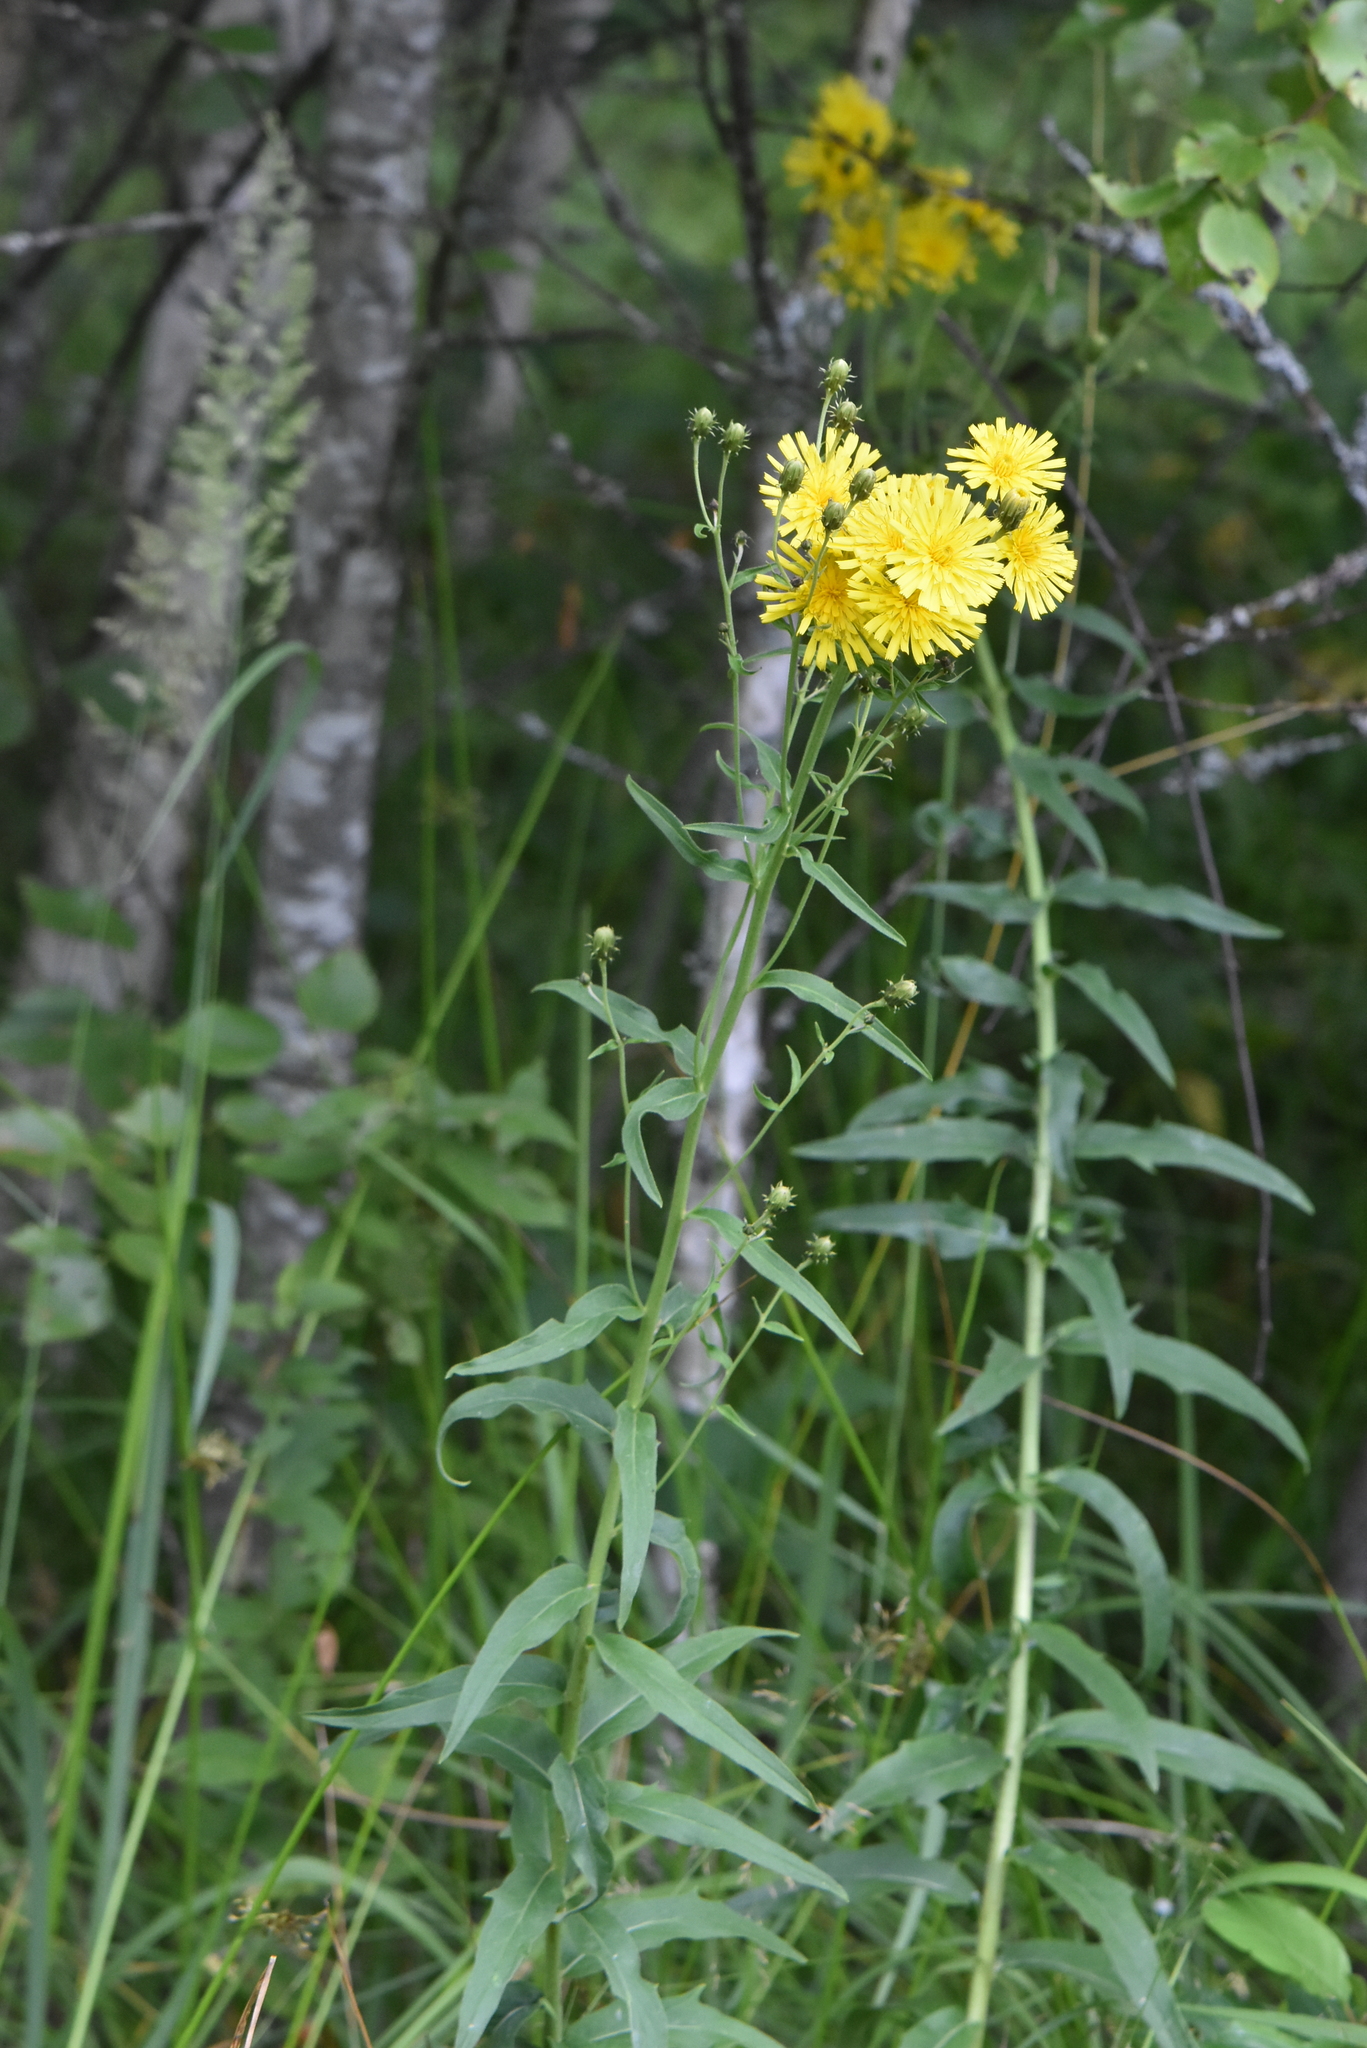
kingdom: Plantae
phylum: Tracheophyta
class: Magnoliopsida
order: Asterales
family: Asteraceae
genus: Hieracium
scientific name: Hieracium umbellatum
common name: Northern hawkweed
